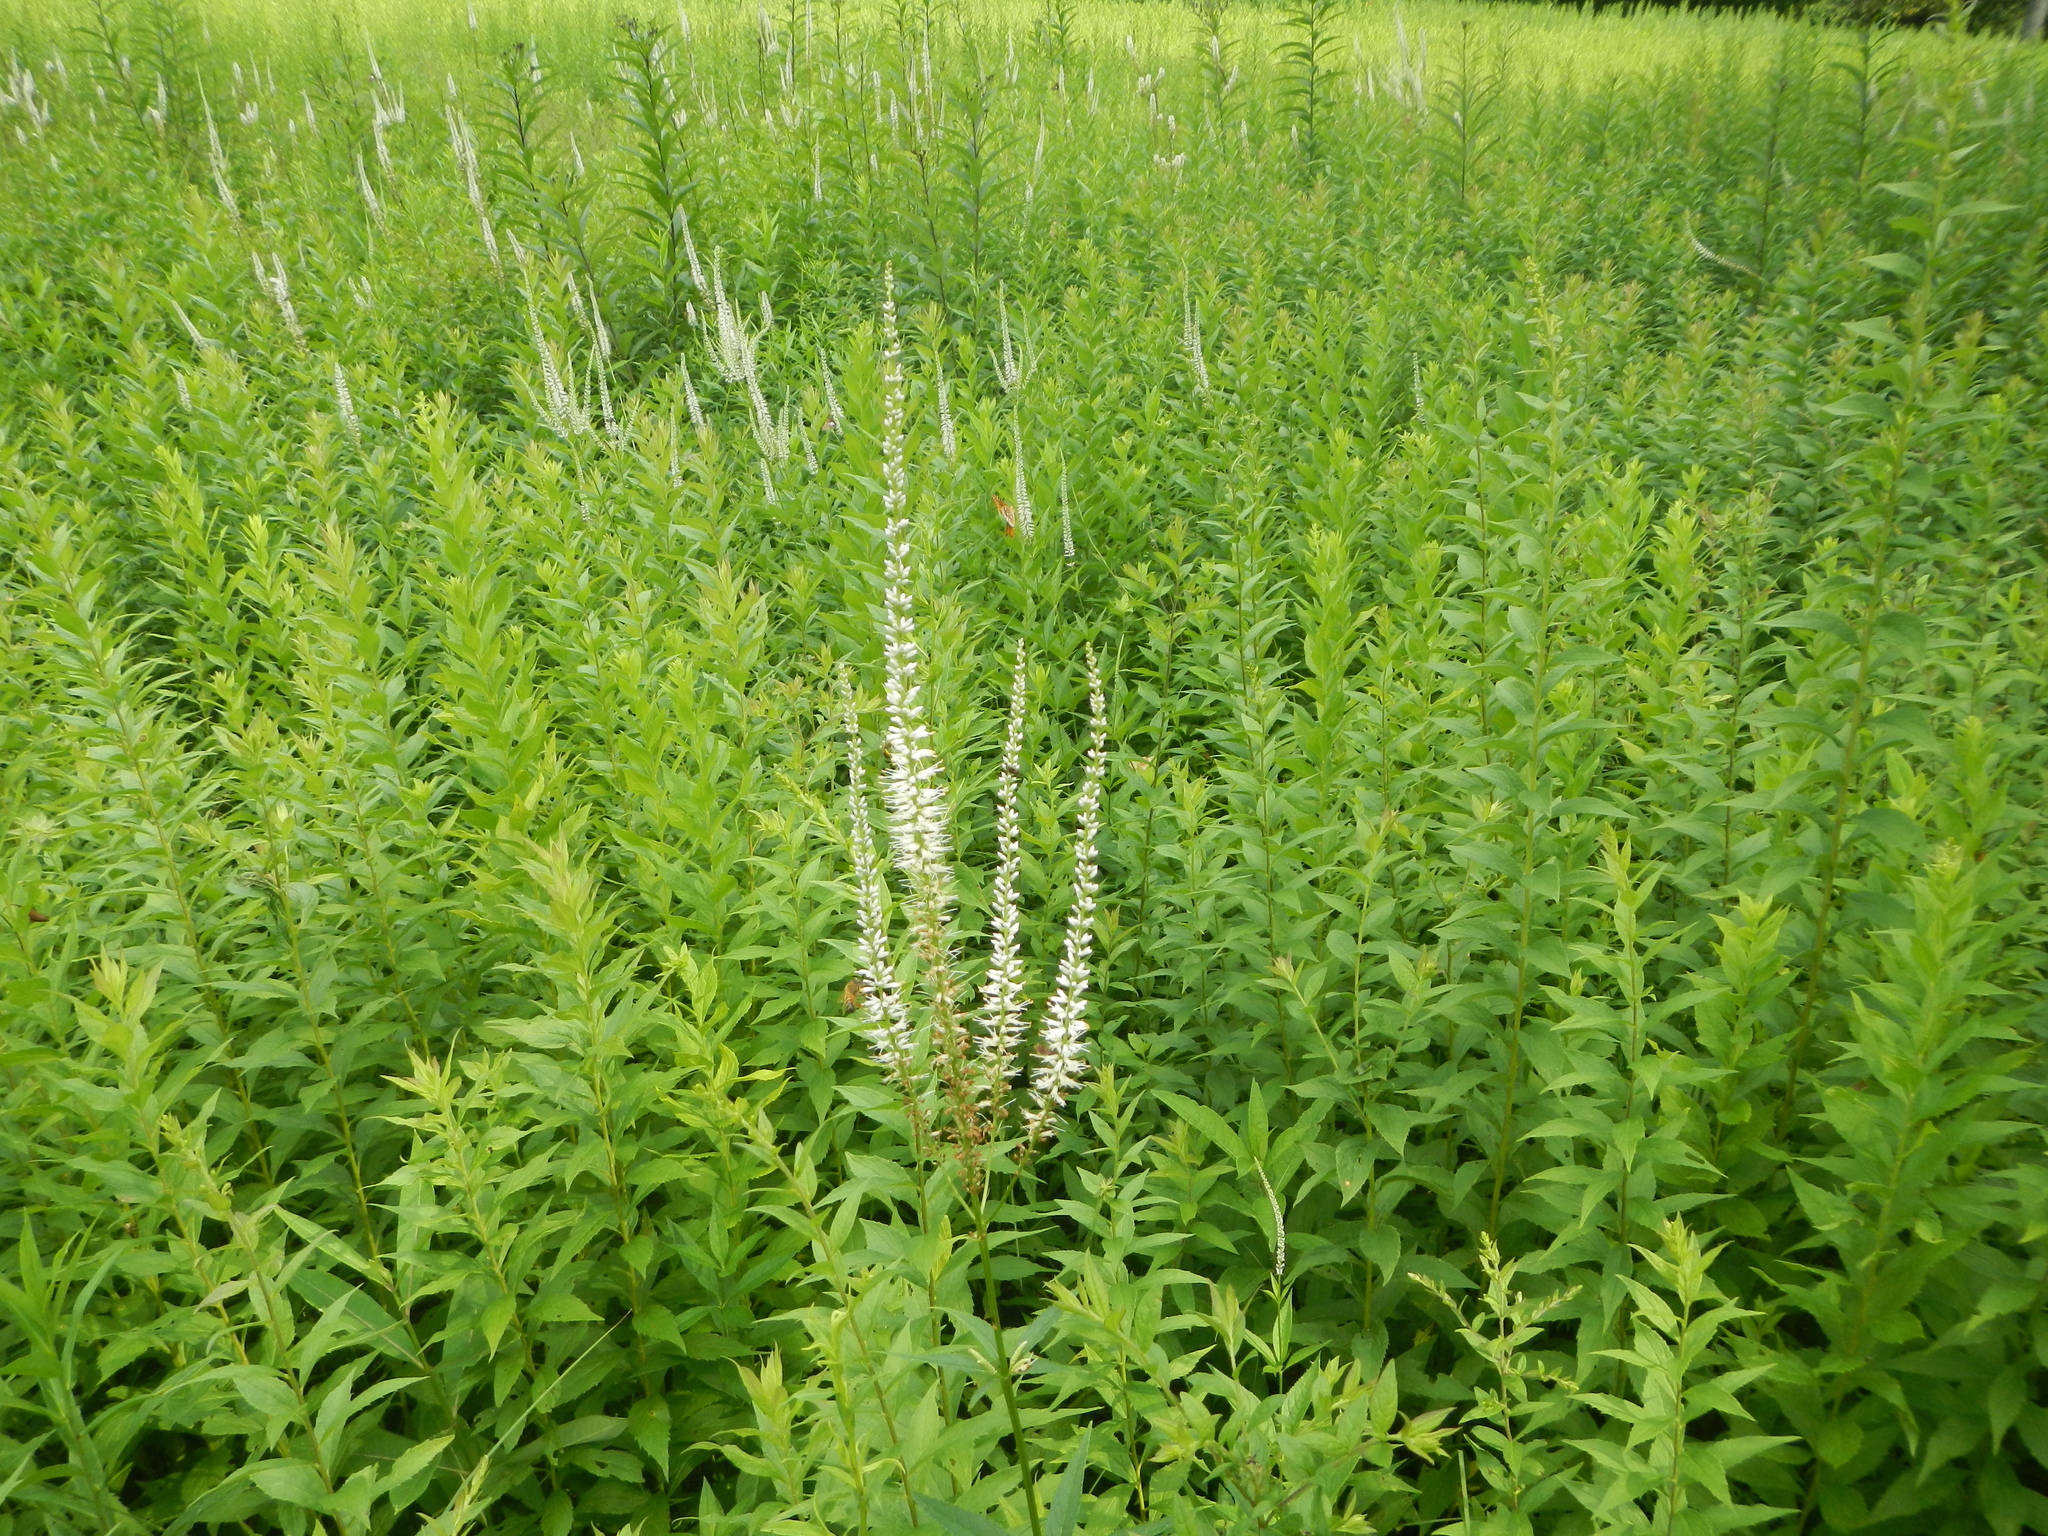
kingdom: Plantae
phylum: Tracheophyta
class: Magnoliopsida
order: Lamiales
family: Plantaginaceae
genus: Veronicastrum
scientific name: Veronicastrum virginicum
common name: Blackroot
